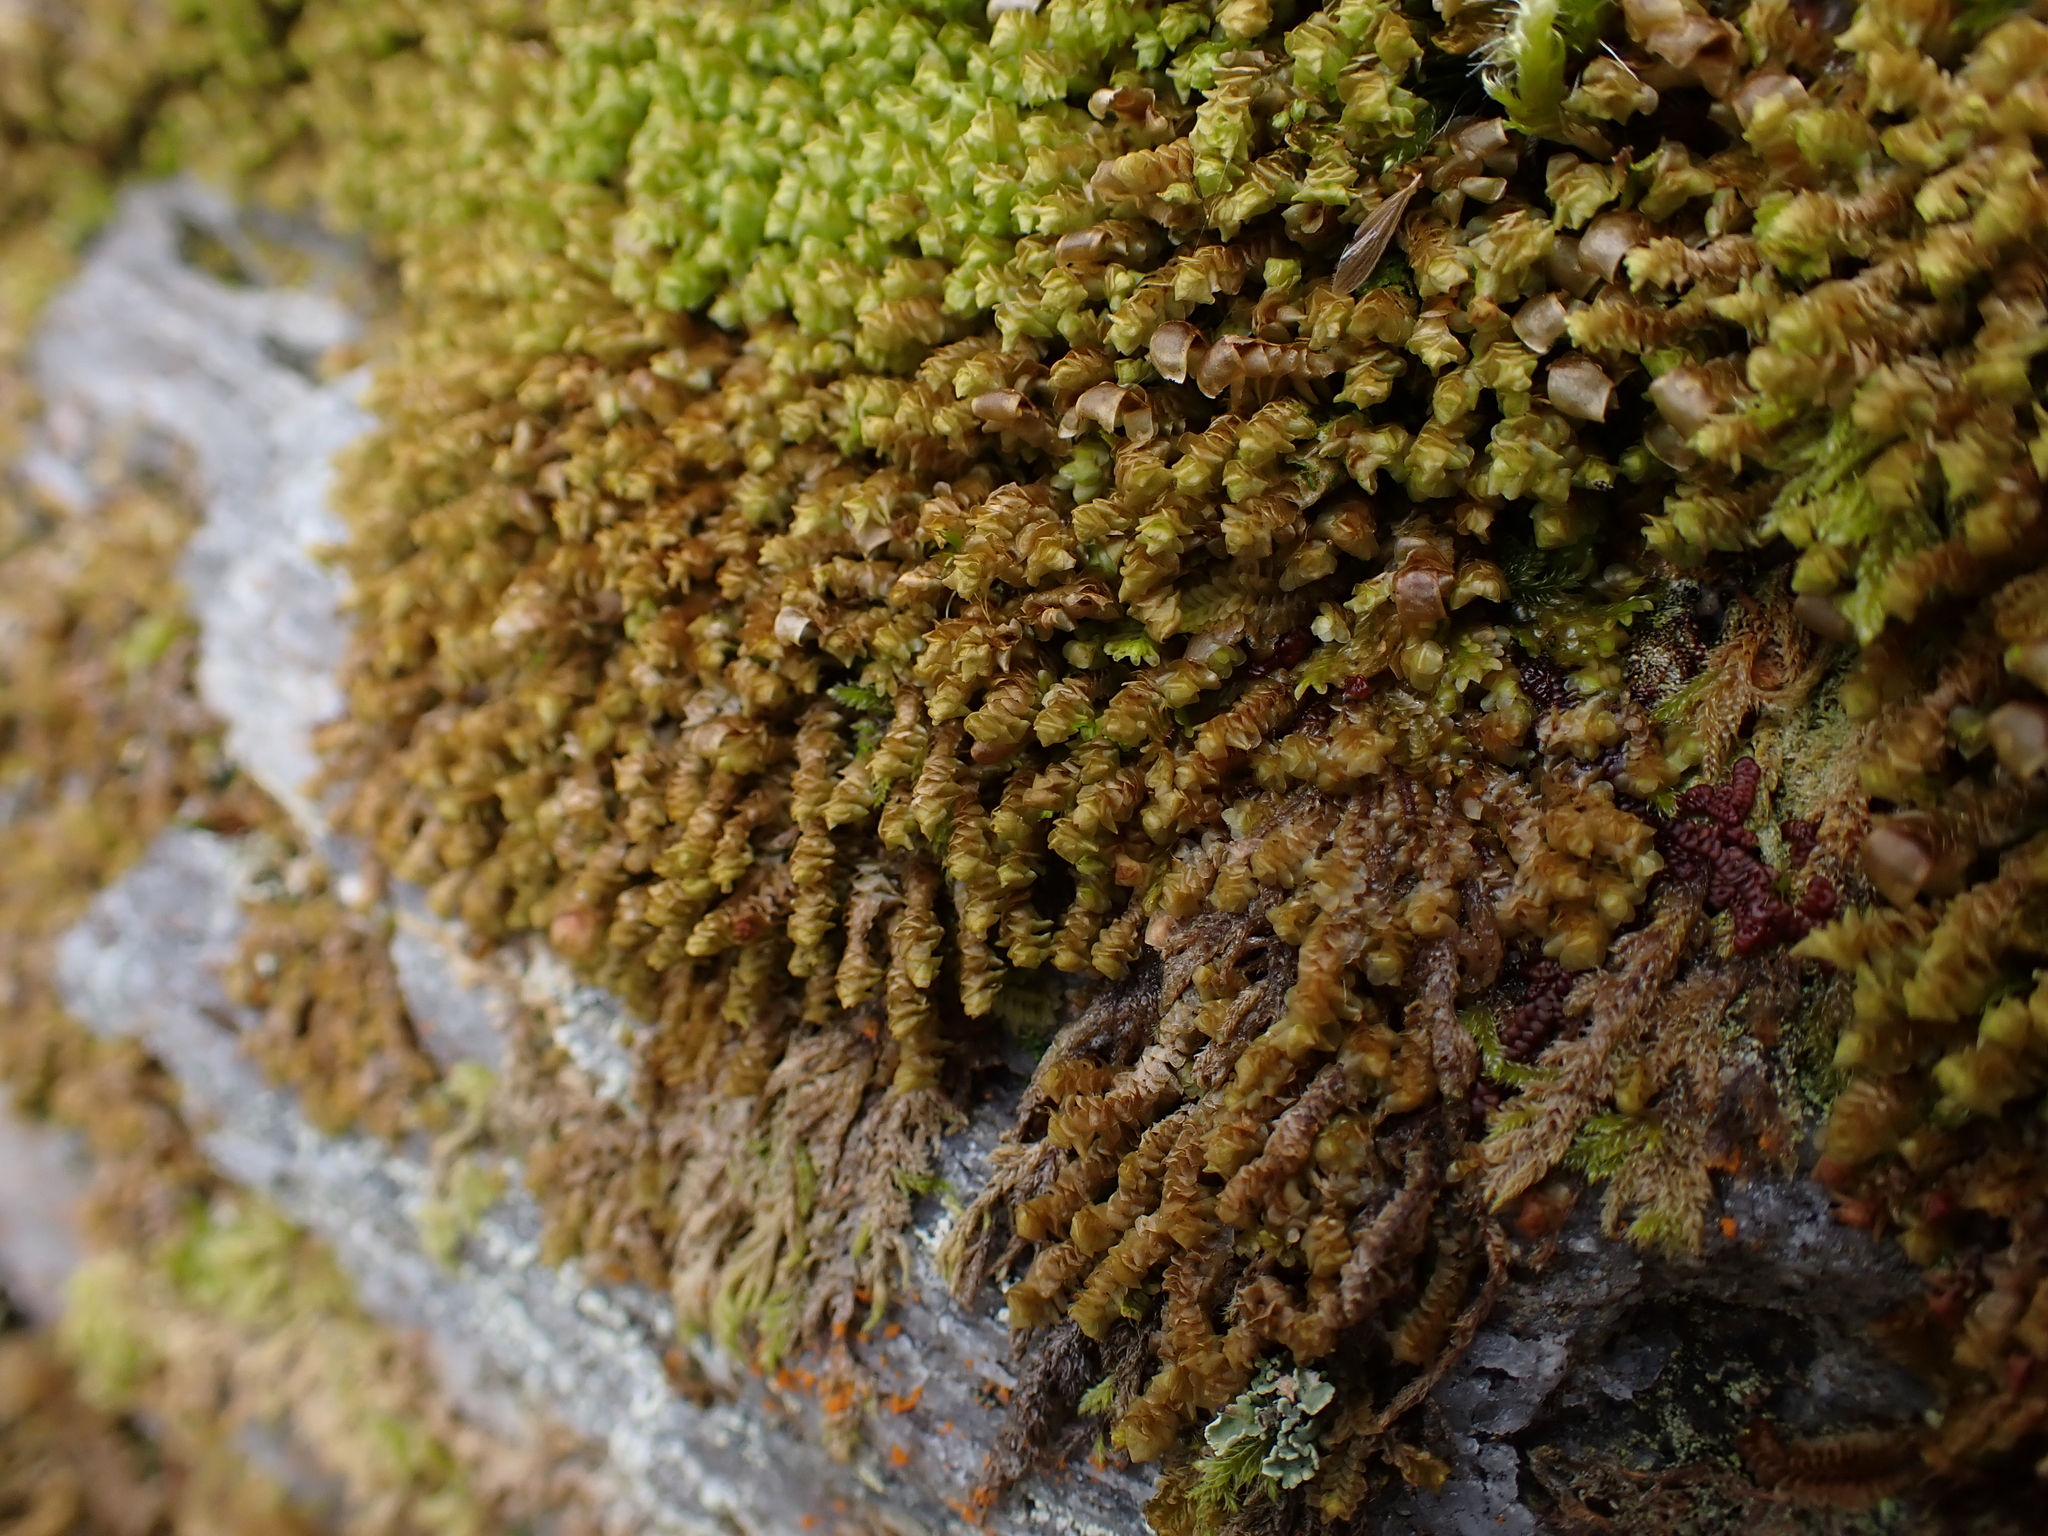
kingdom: Plantae
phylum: Marchantiophyta
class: Jungermanniopsida
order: Jungermanniales
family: Scapaniaceae
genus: Scapania
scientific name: Scapania gracilis
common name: Western earwort
